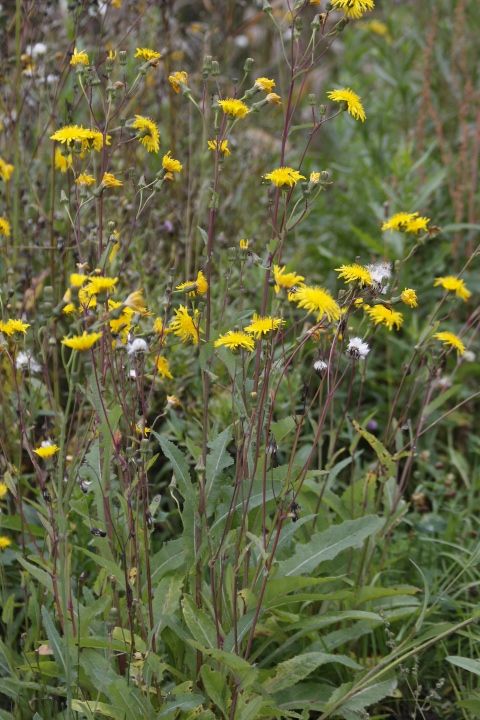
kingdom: Plantae
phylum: Tracheophyta
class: Magnoliopsida
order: Asterales
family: Asteraceae
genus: Sonchus
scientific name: Sonchus arvensis
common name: Perennial sow-thistle
